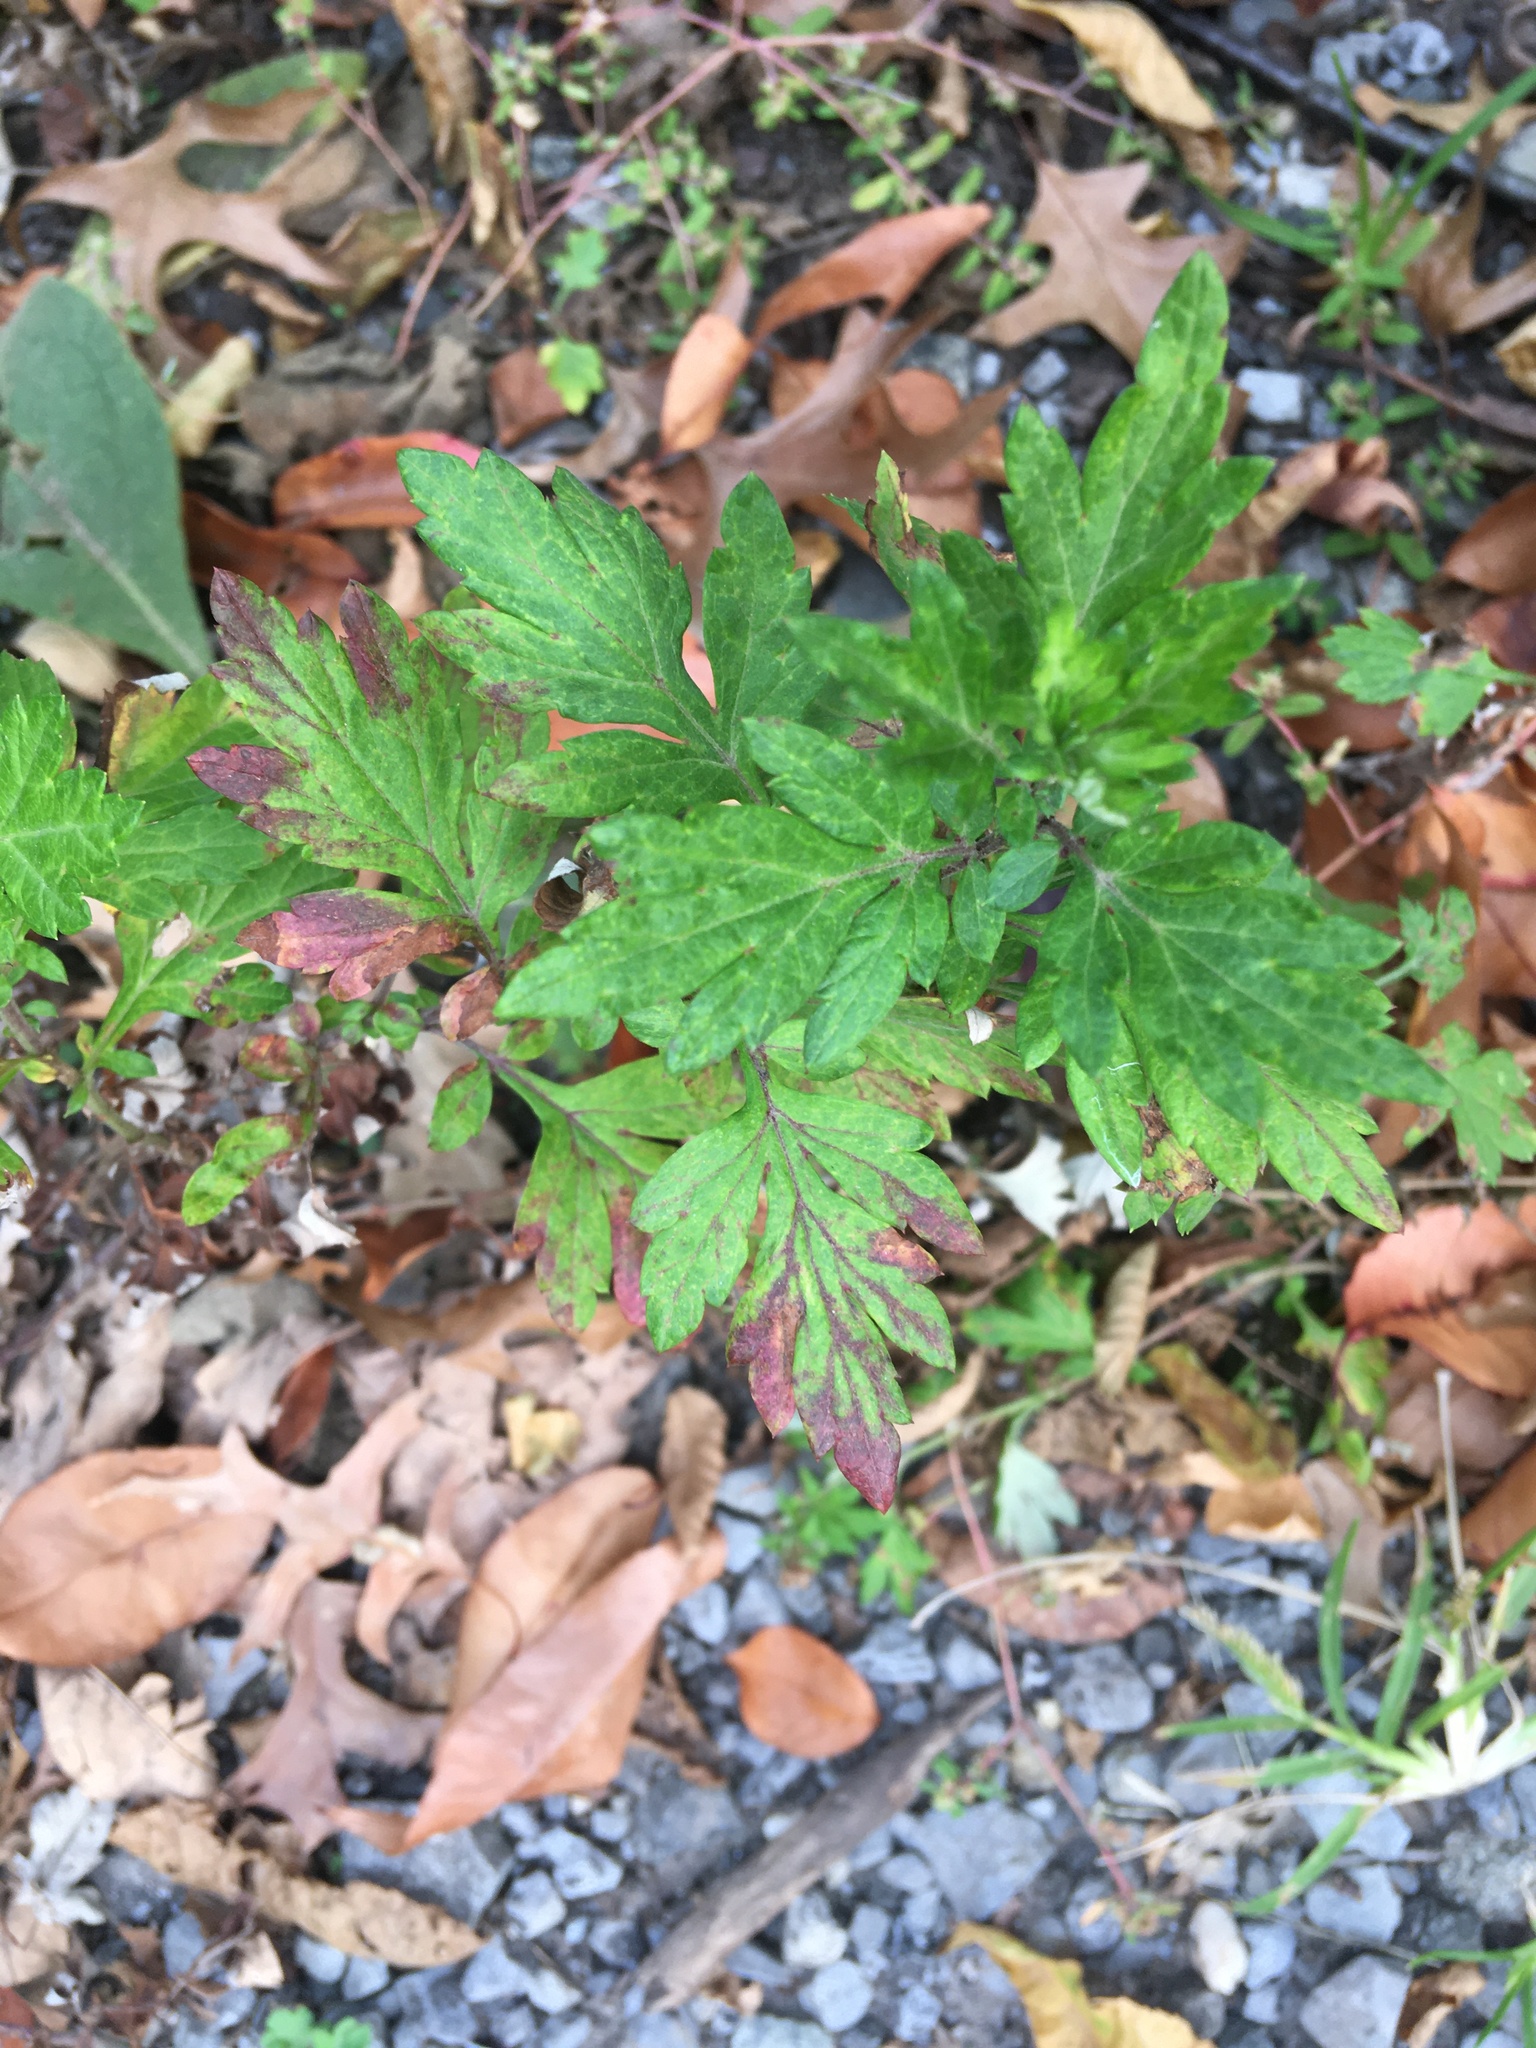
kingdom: Plantae
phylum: Tracheophyta
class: Magnoliopsida
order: Asterales
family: Asteraceae
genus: Artemisia
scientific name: Artemisia vulgaris
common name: Mugwort
